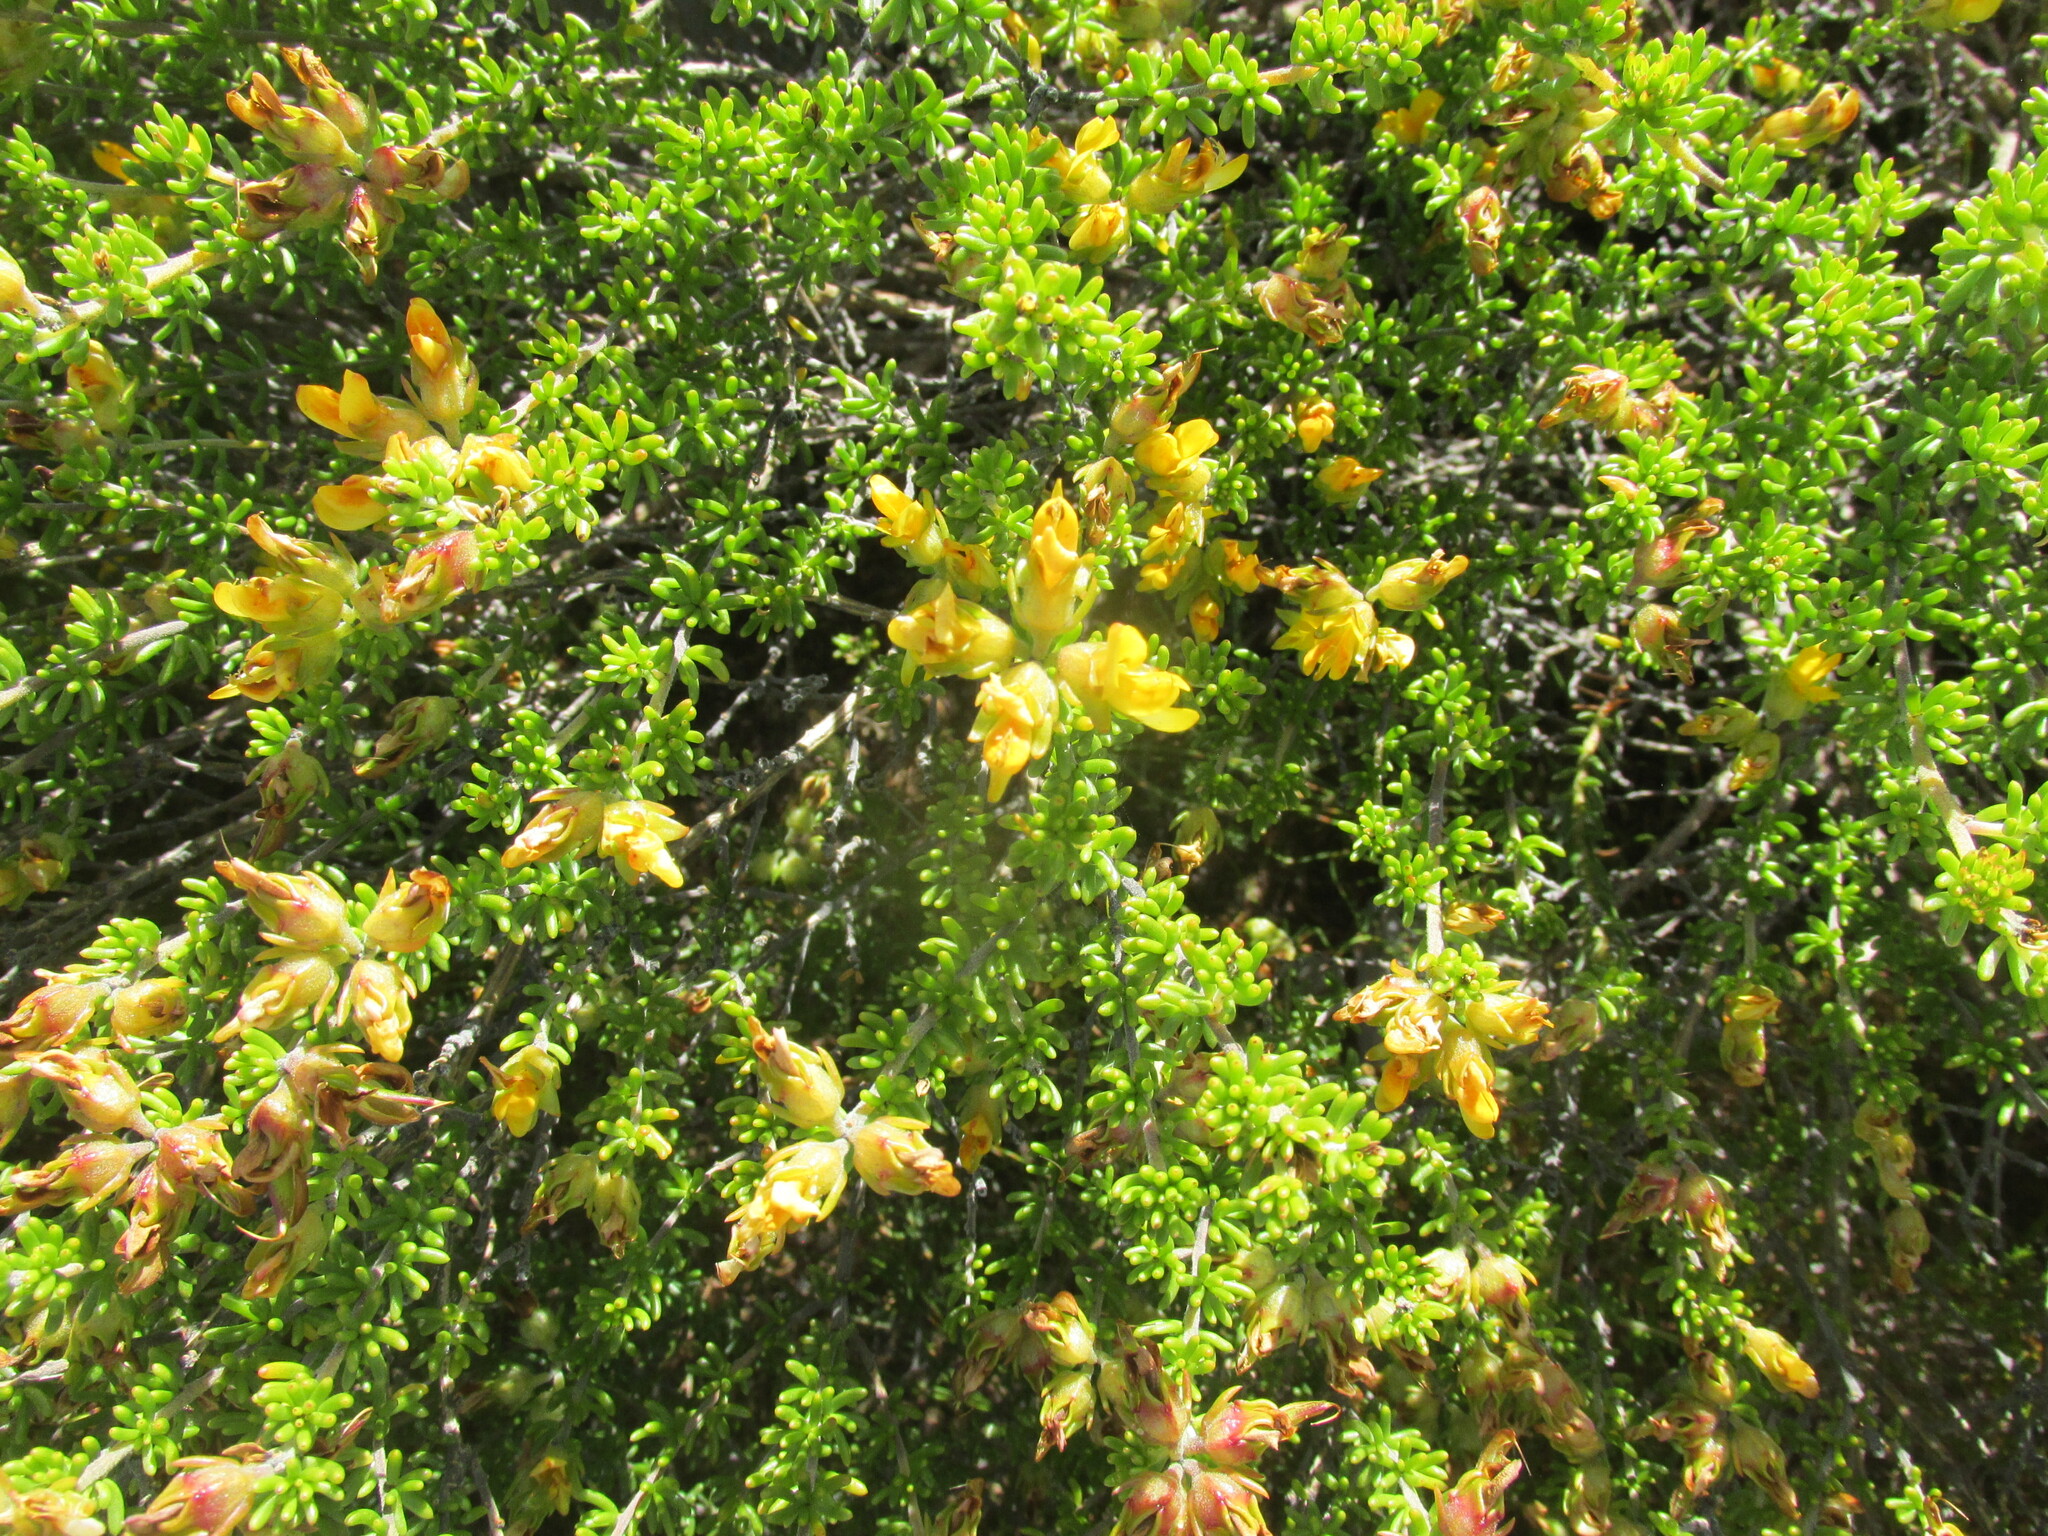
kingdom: Plantae
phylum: Tracheophyta
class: Magnoliopsida
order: Fabales
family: Fabaceae
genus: Aspalathus
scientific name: Aspalathus carnosa
